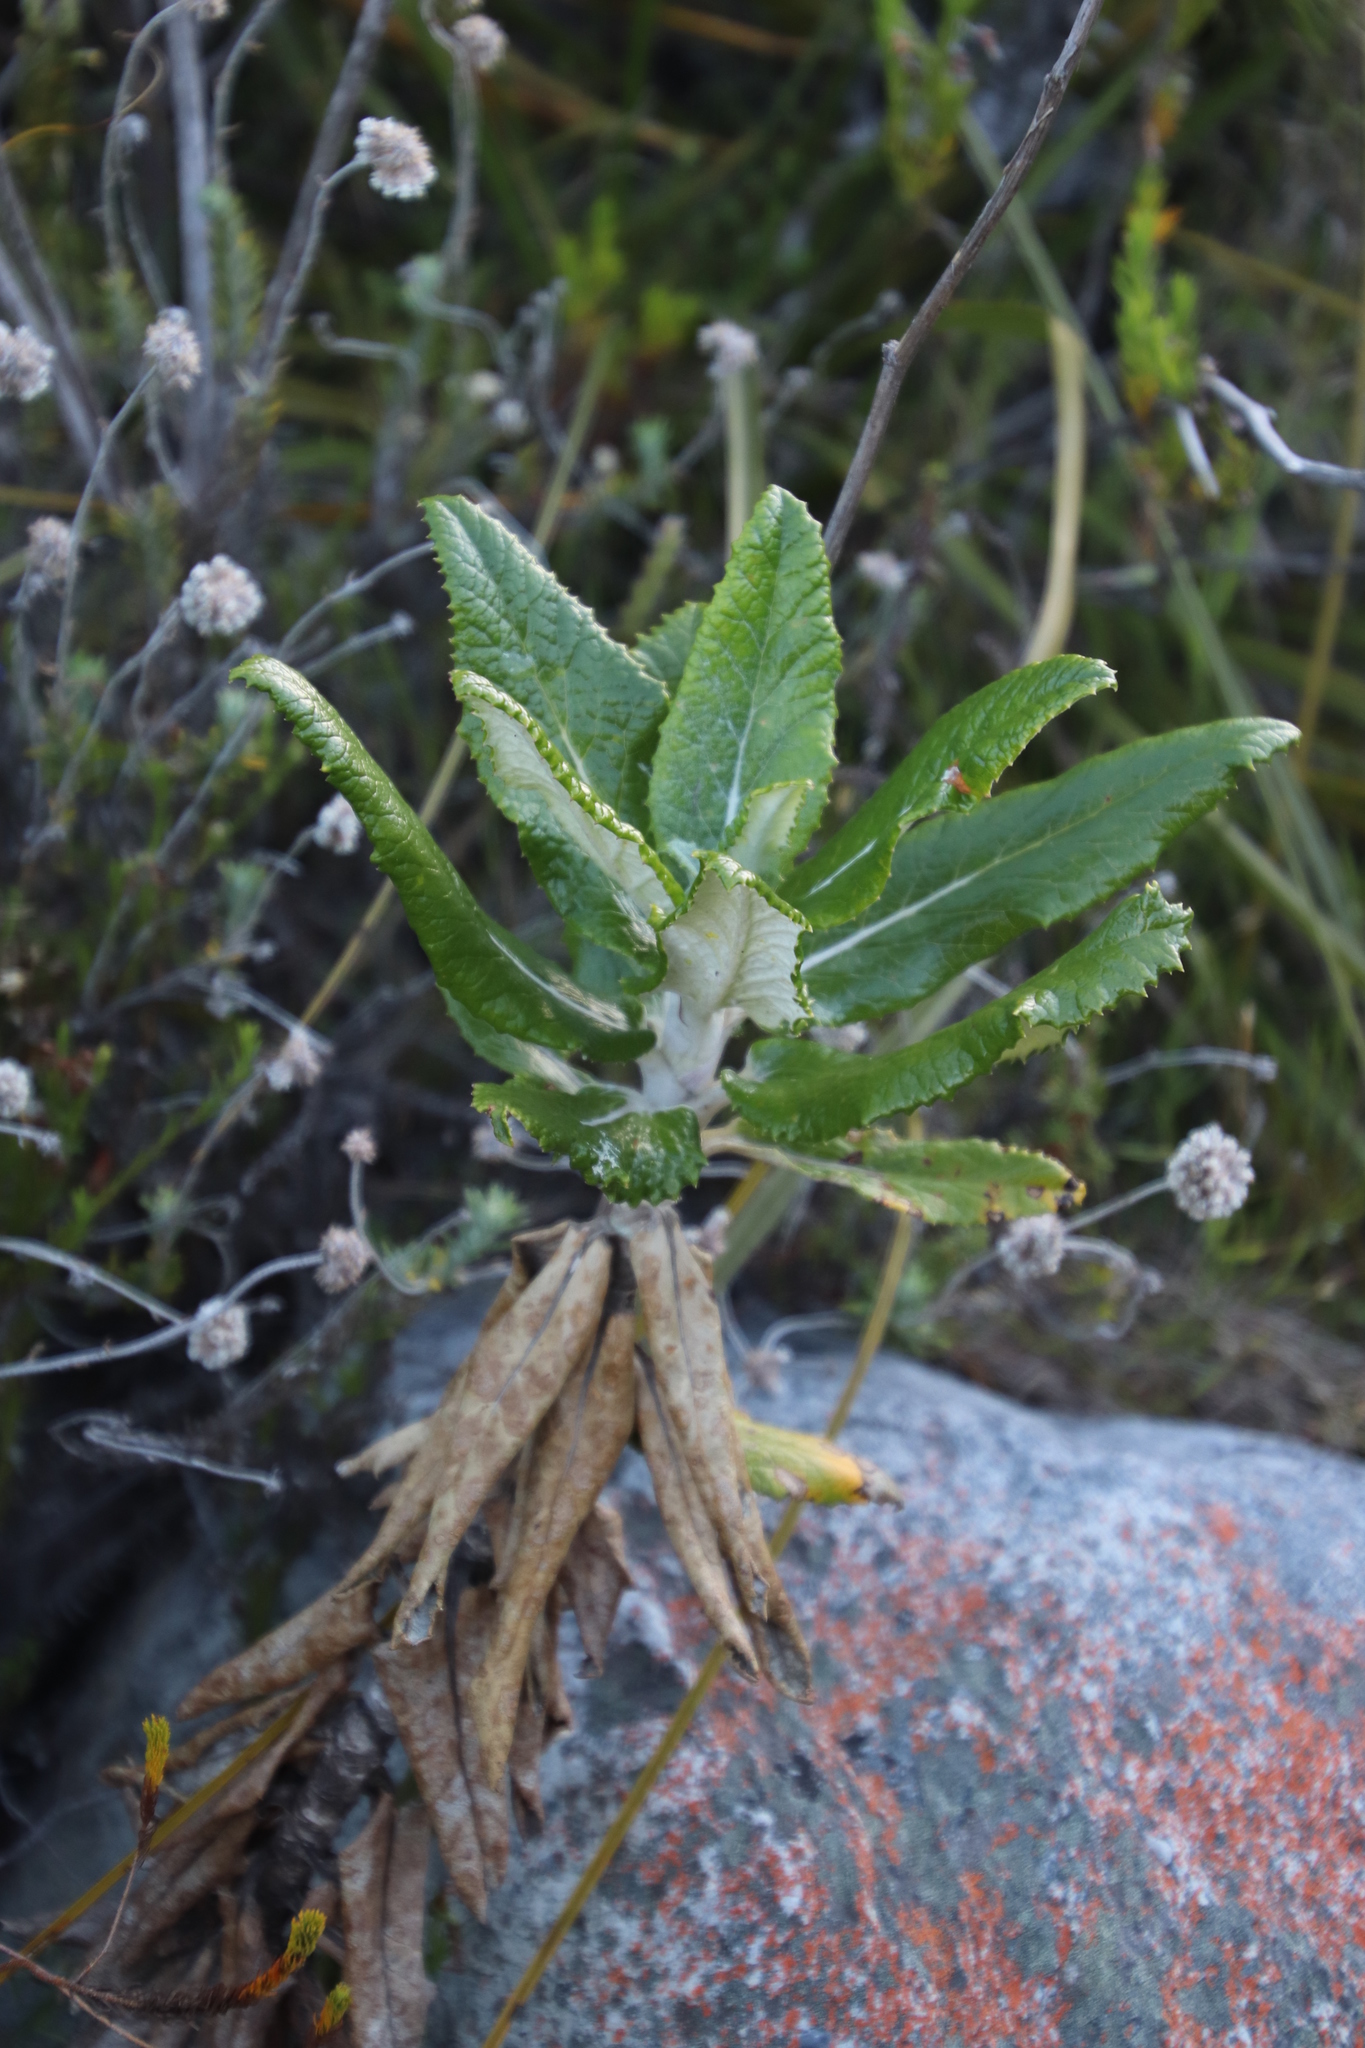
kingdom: Plantae
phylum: Tracheophyta
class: Magnoliopsida
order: Apiales
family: Apiaceae
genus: Hermas
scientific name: Hermas villosa
